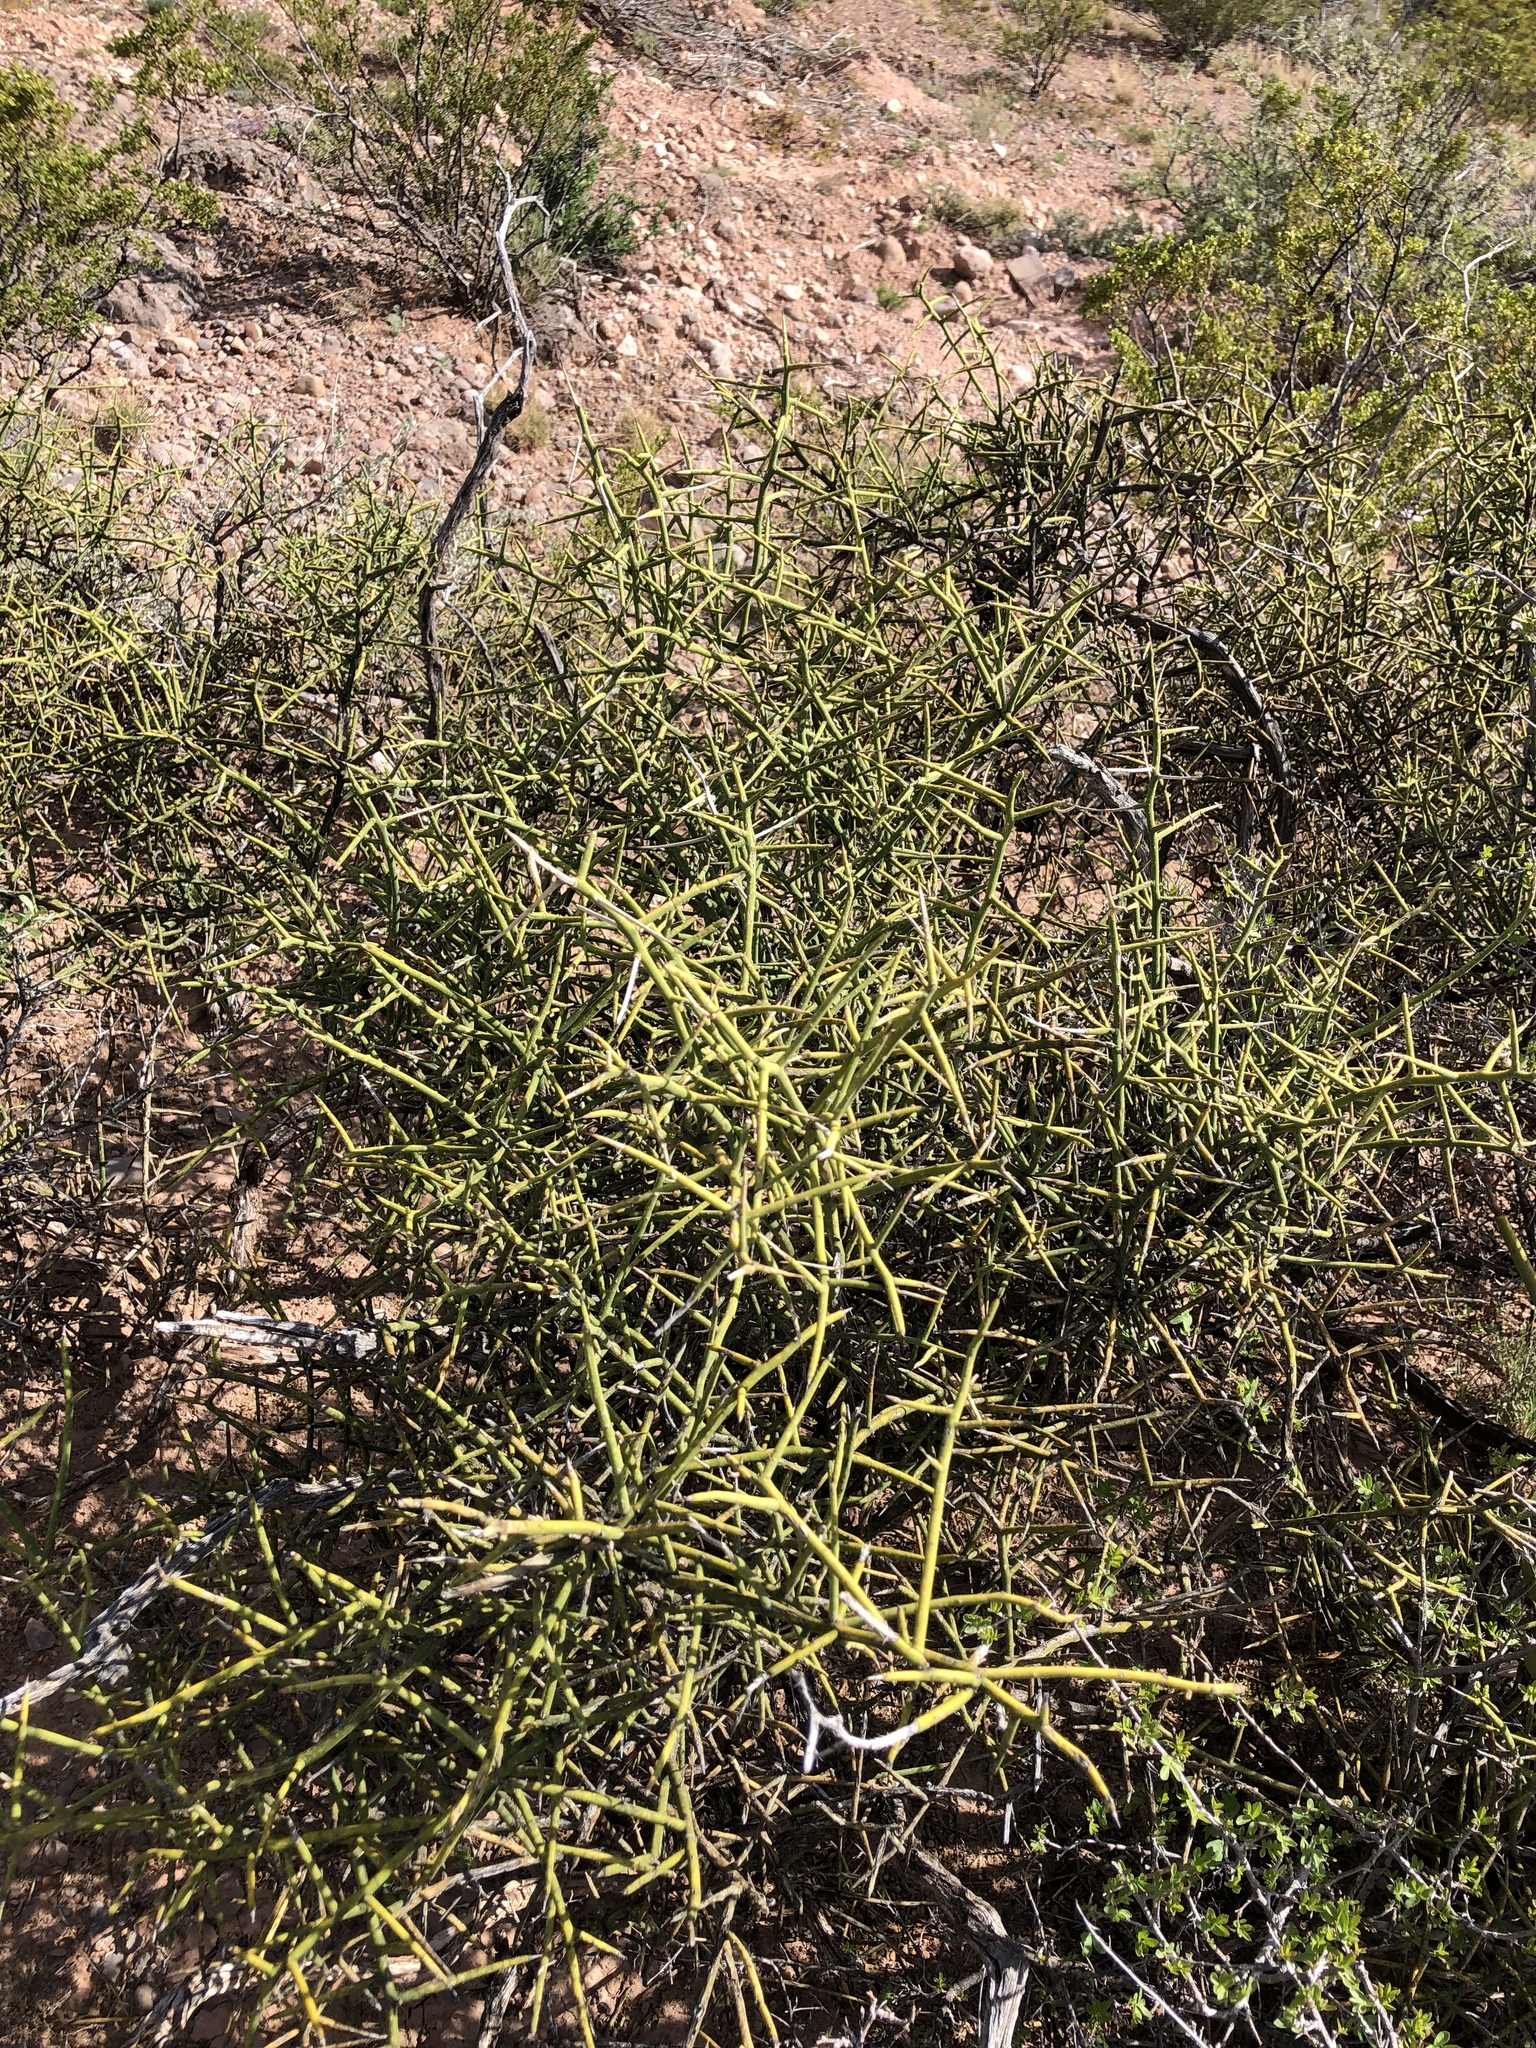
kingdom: Plantae
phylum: Tracheophyta
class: Magnoliopsida
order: Brassicales
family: Koeberliniaceae
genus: Koeberlinia
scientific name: Koeberlinia spinosa
